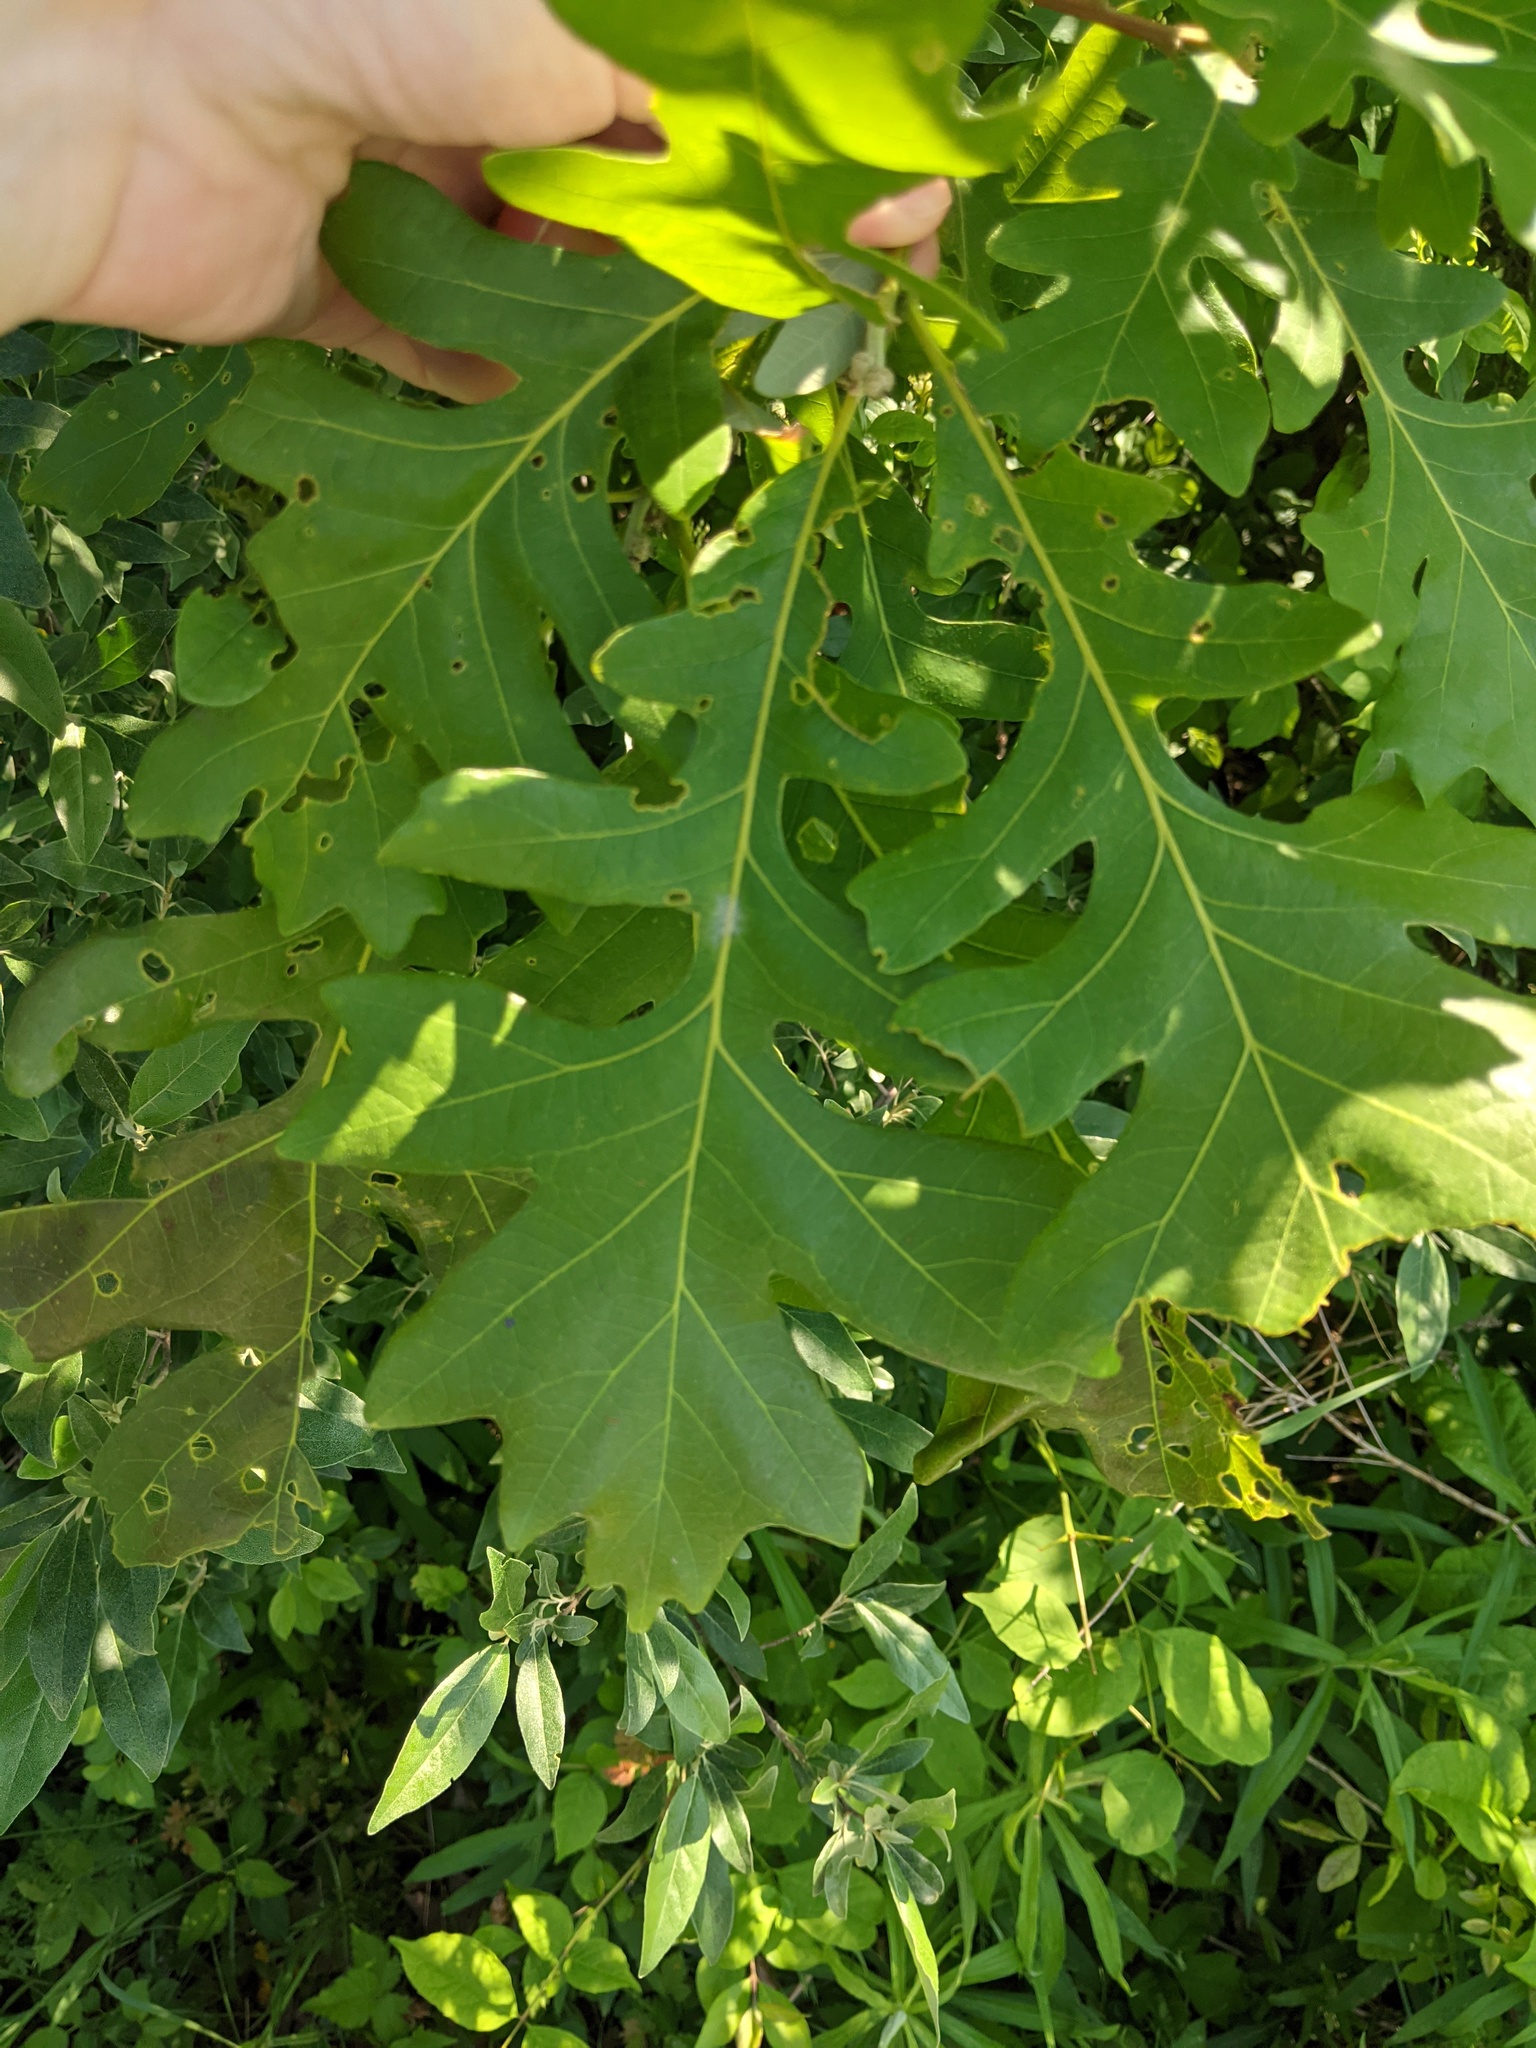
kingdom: Plantae
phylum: Tracheophyta
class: Magnoliopsida
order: Fagales
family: Fagaceae
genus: Quercus
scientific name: Quercus macrocarpa
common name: Bur oak
